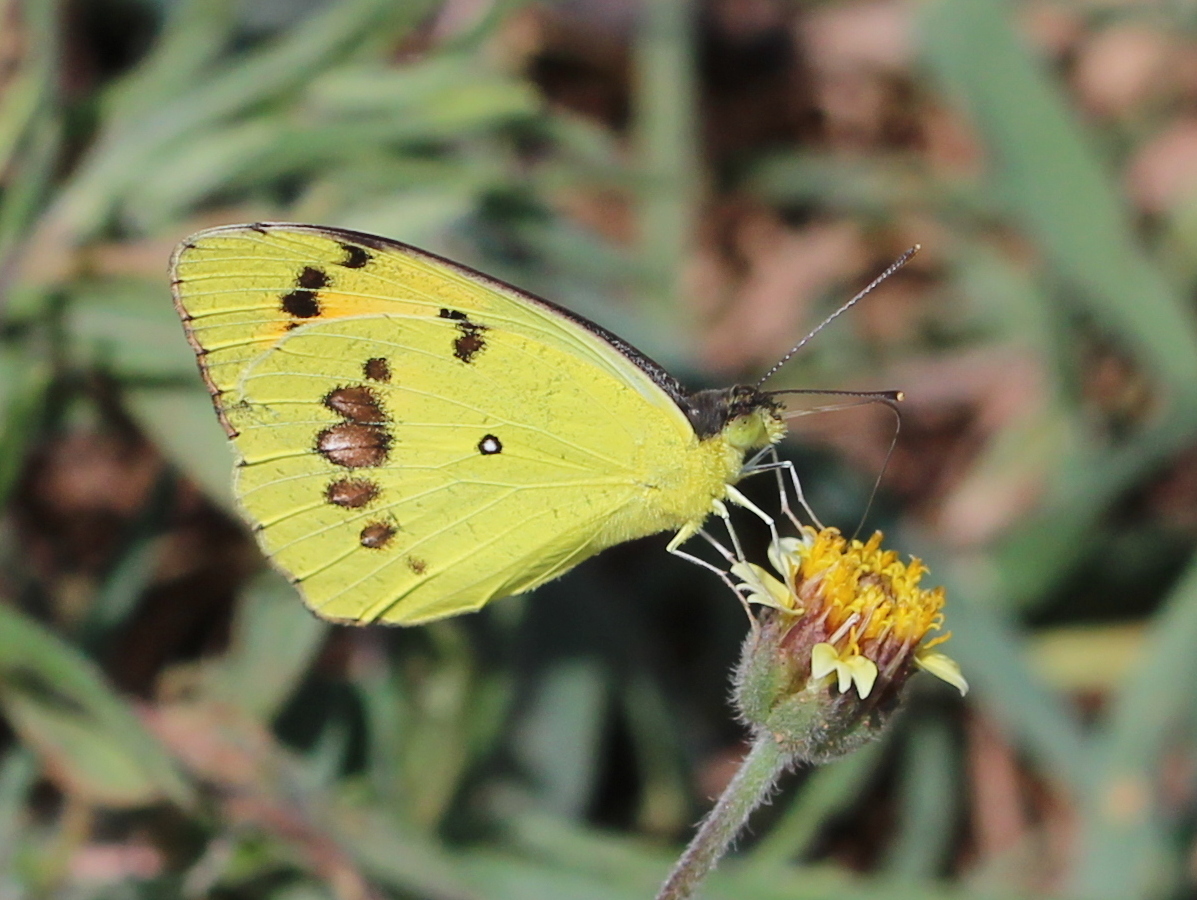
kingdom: Animalia
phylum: Arthropoda
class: Insecta
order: Lepidoptera
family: Pieridae
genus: Ixias
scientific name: Ixias marianne
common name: White orange tip
